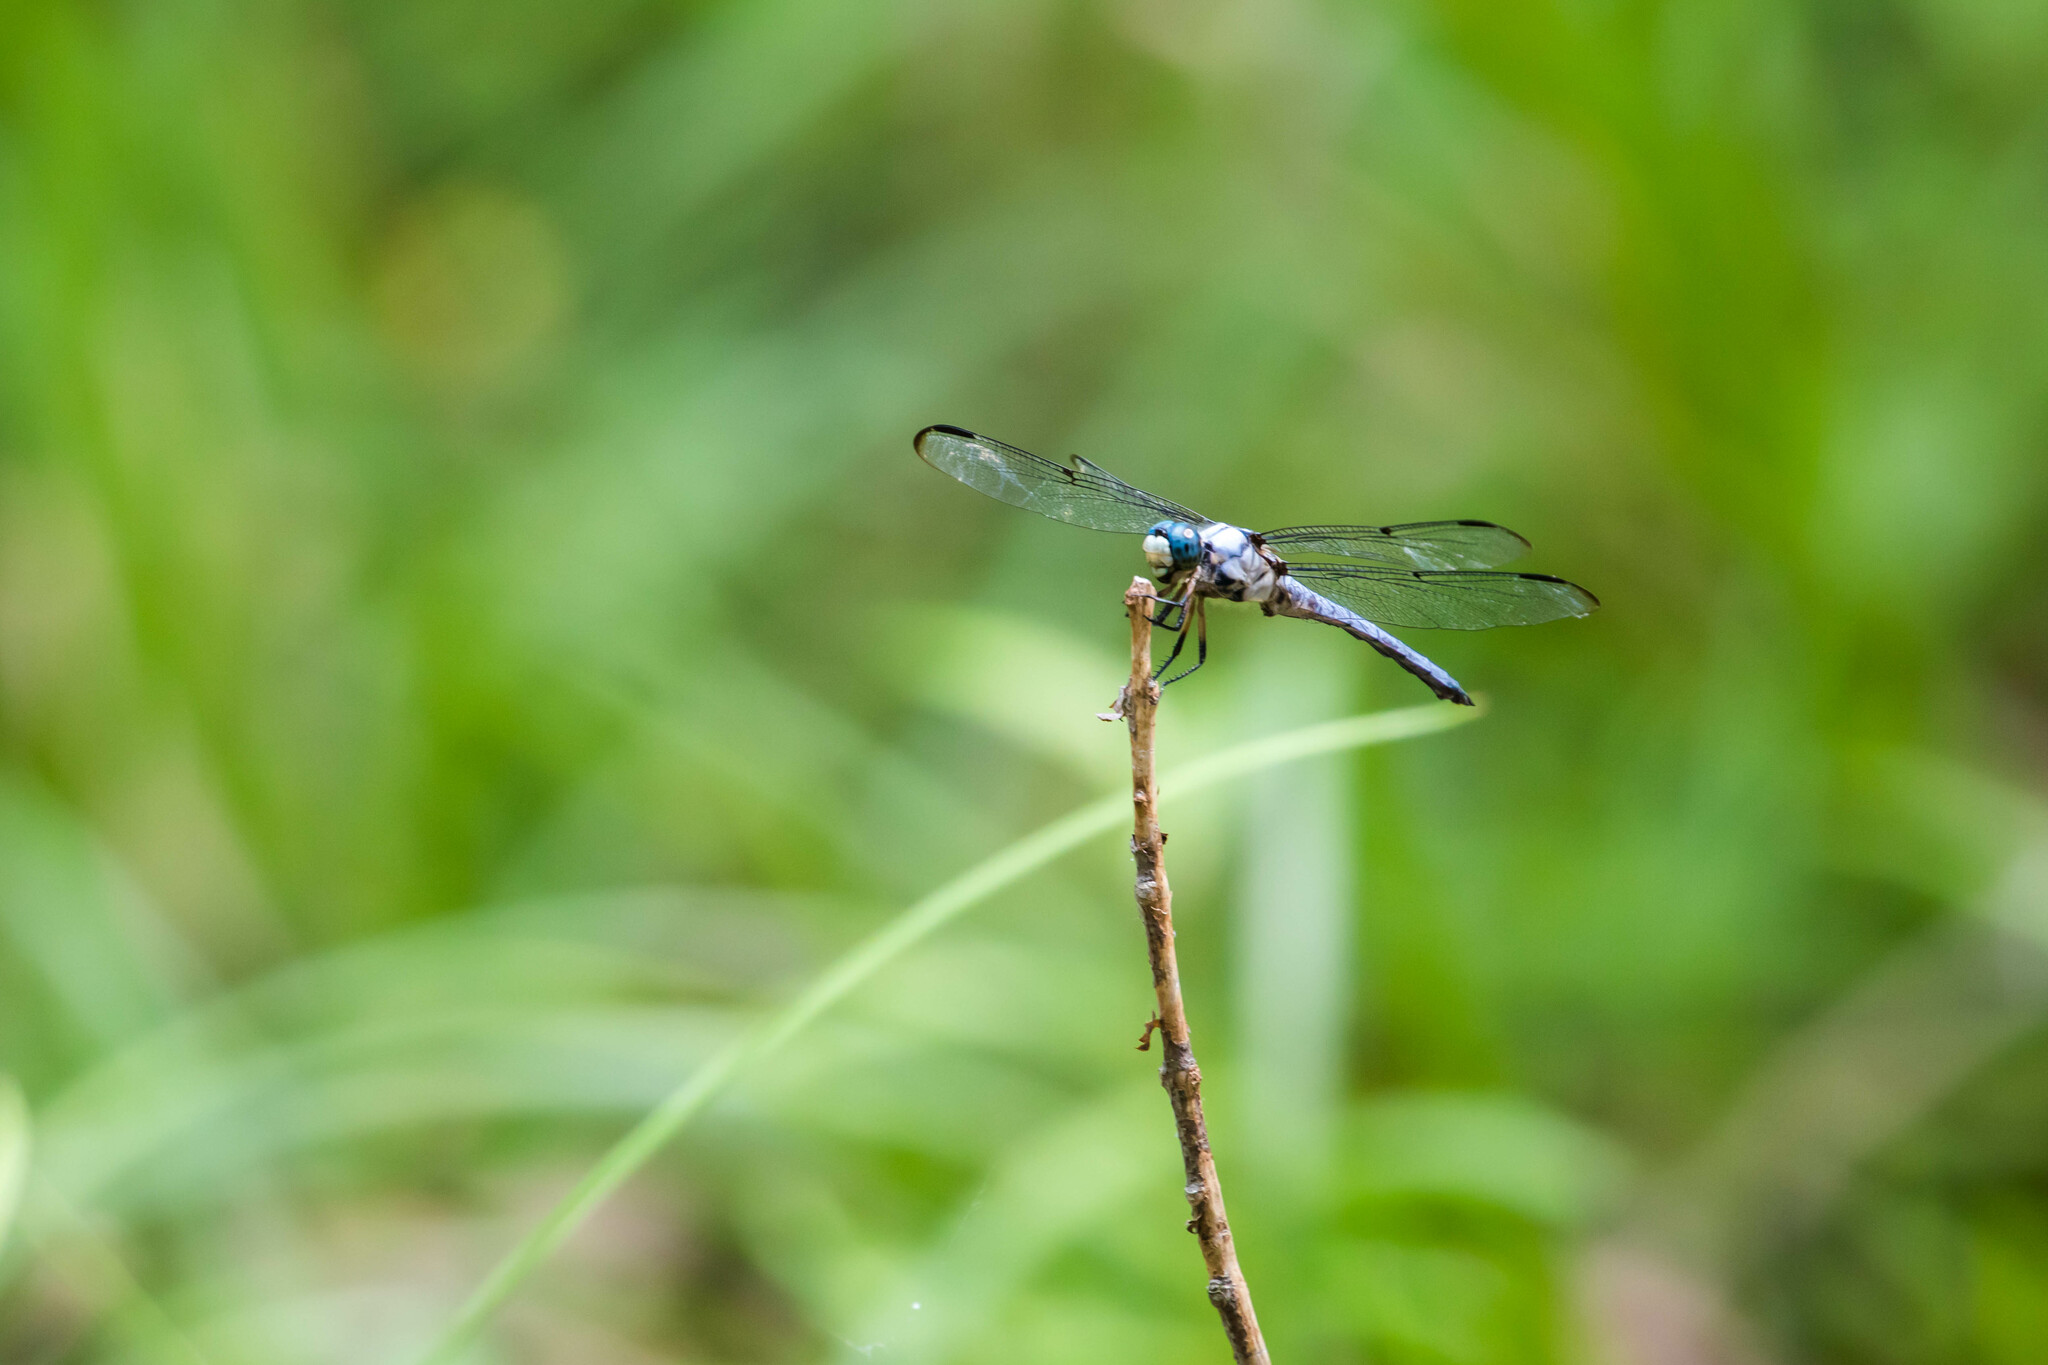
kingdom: Animalia
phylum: Arthropoda
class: Insecta
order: Odonata
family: Libellulidae
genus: Libellula
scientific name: Libellula vibrans
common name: Great blue skimmer
